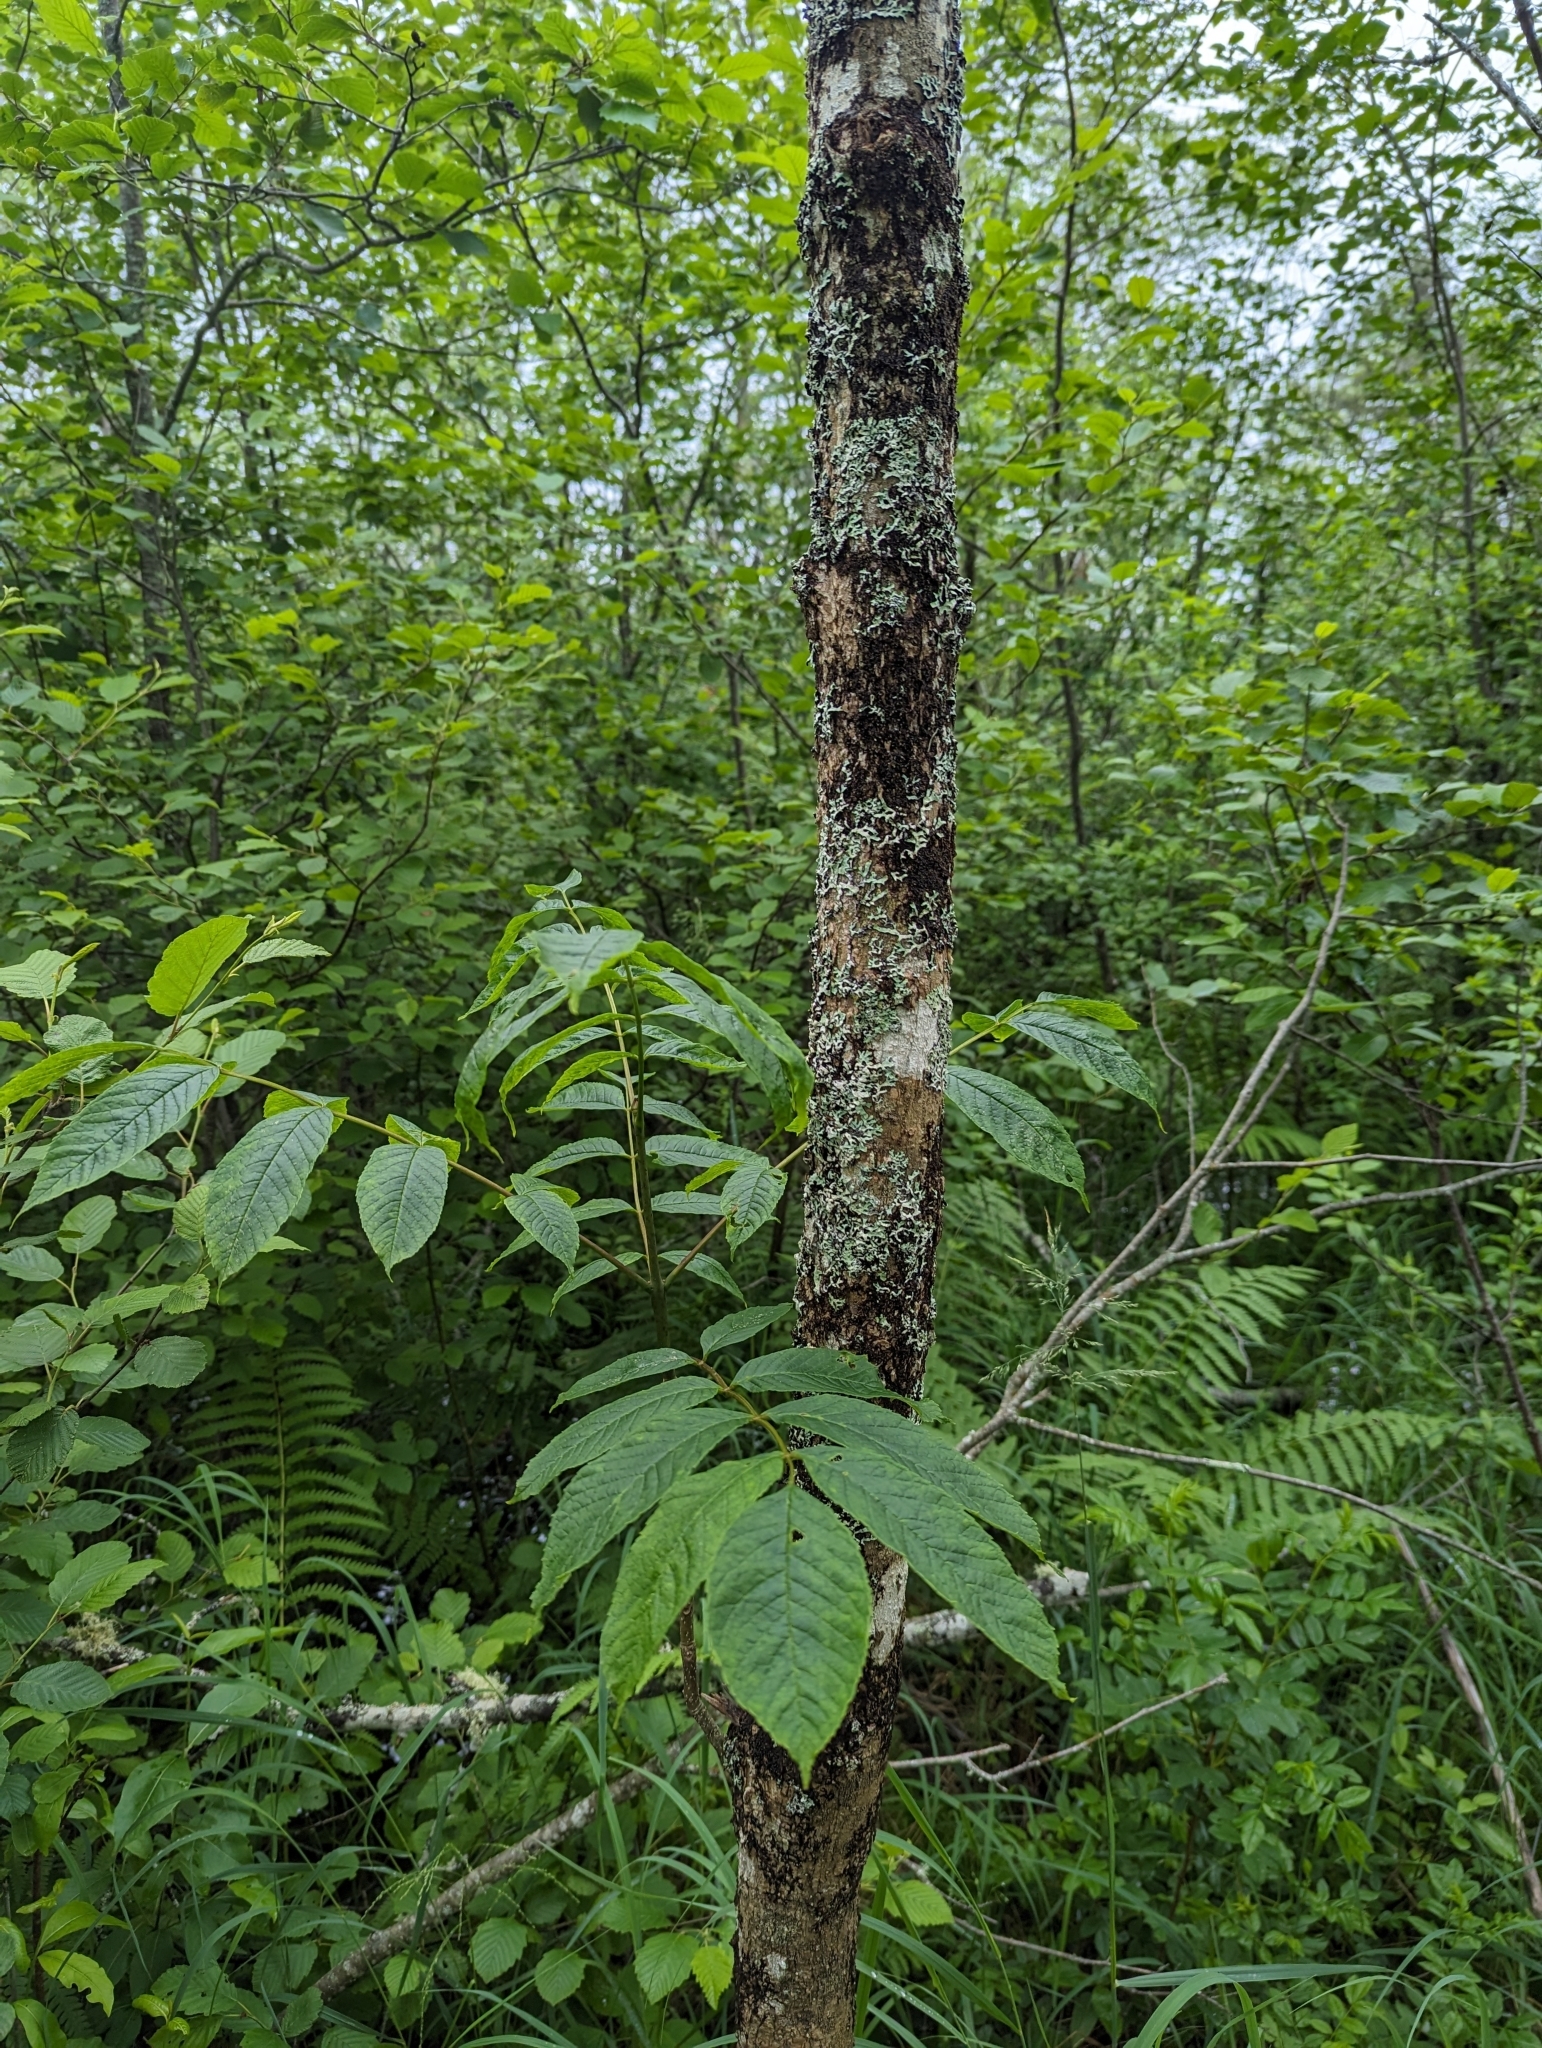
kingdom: Plantae
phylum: Tracheophyta
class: Magnoliopsida
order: Lamiales
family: Oleaceae
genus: Fraxinus
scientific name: Fraxinus nigra
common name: Black ash
